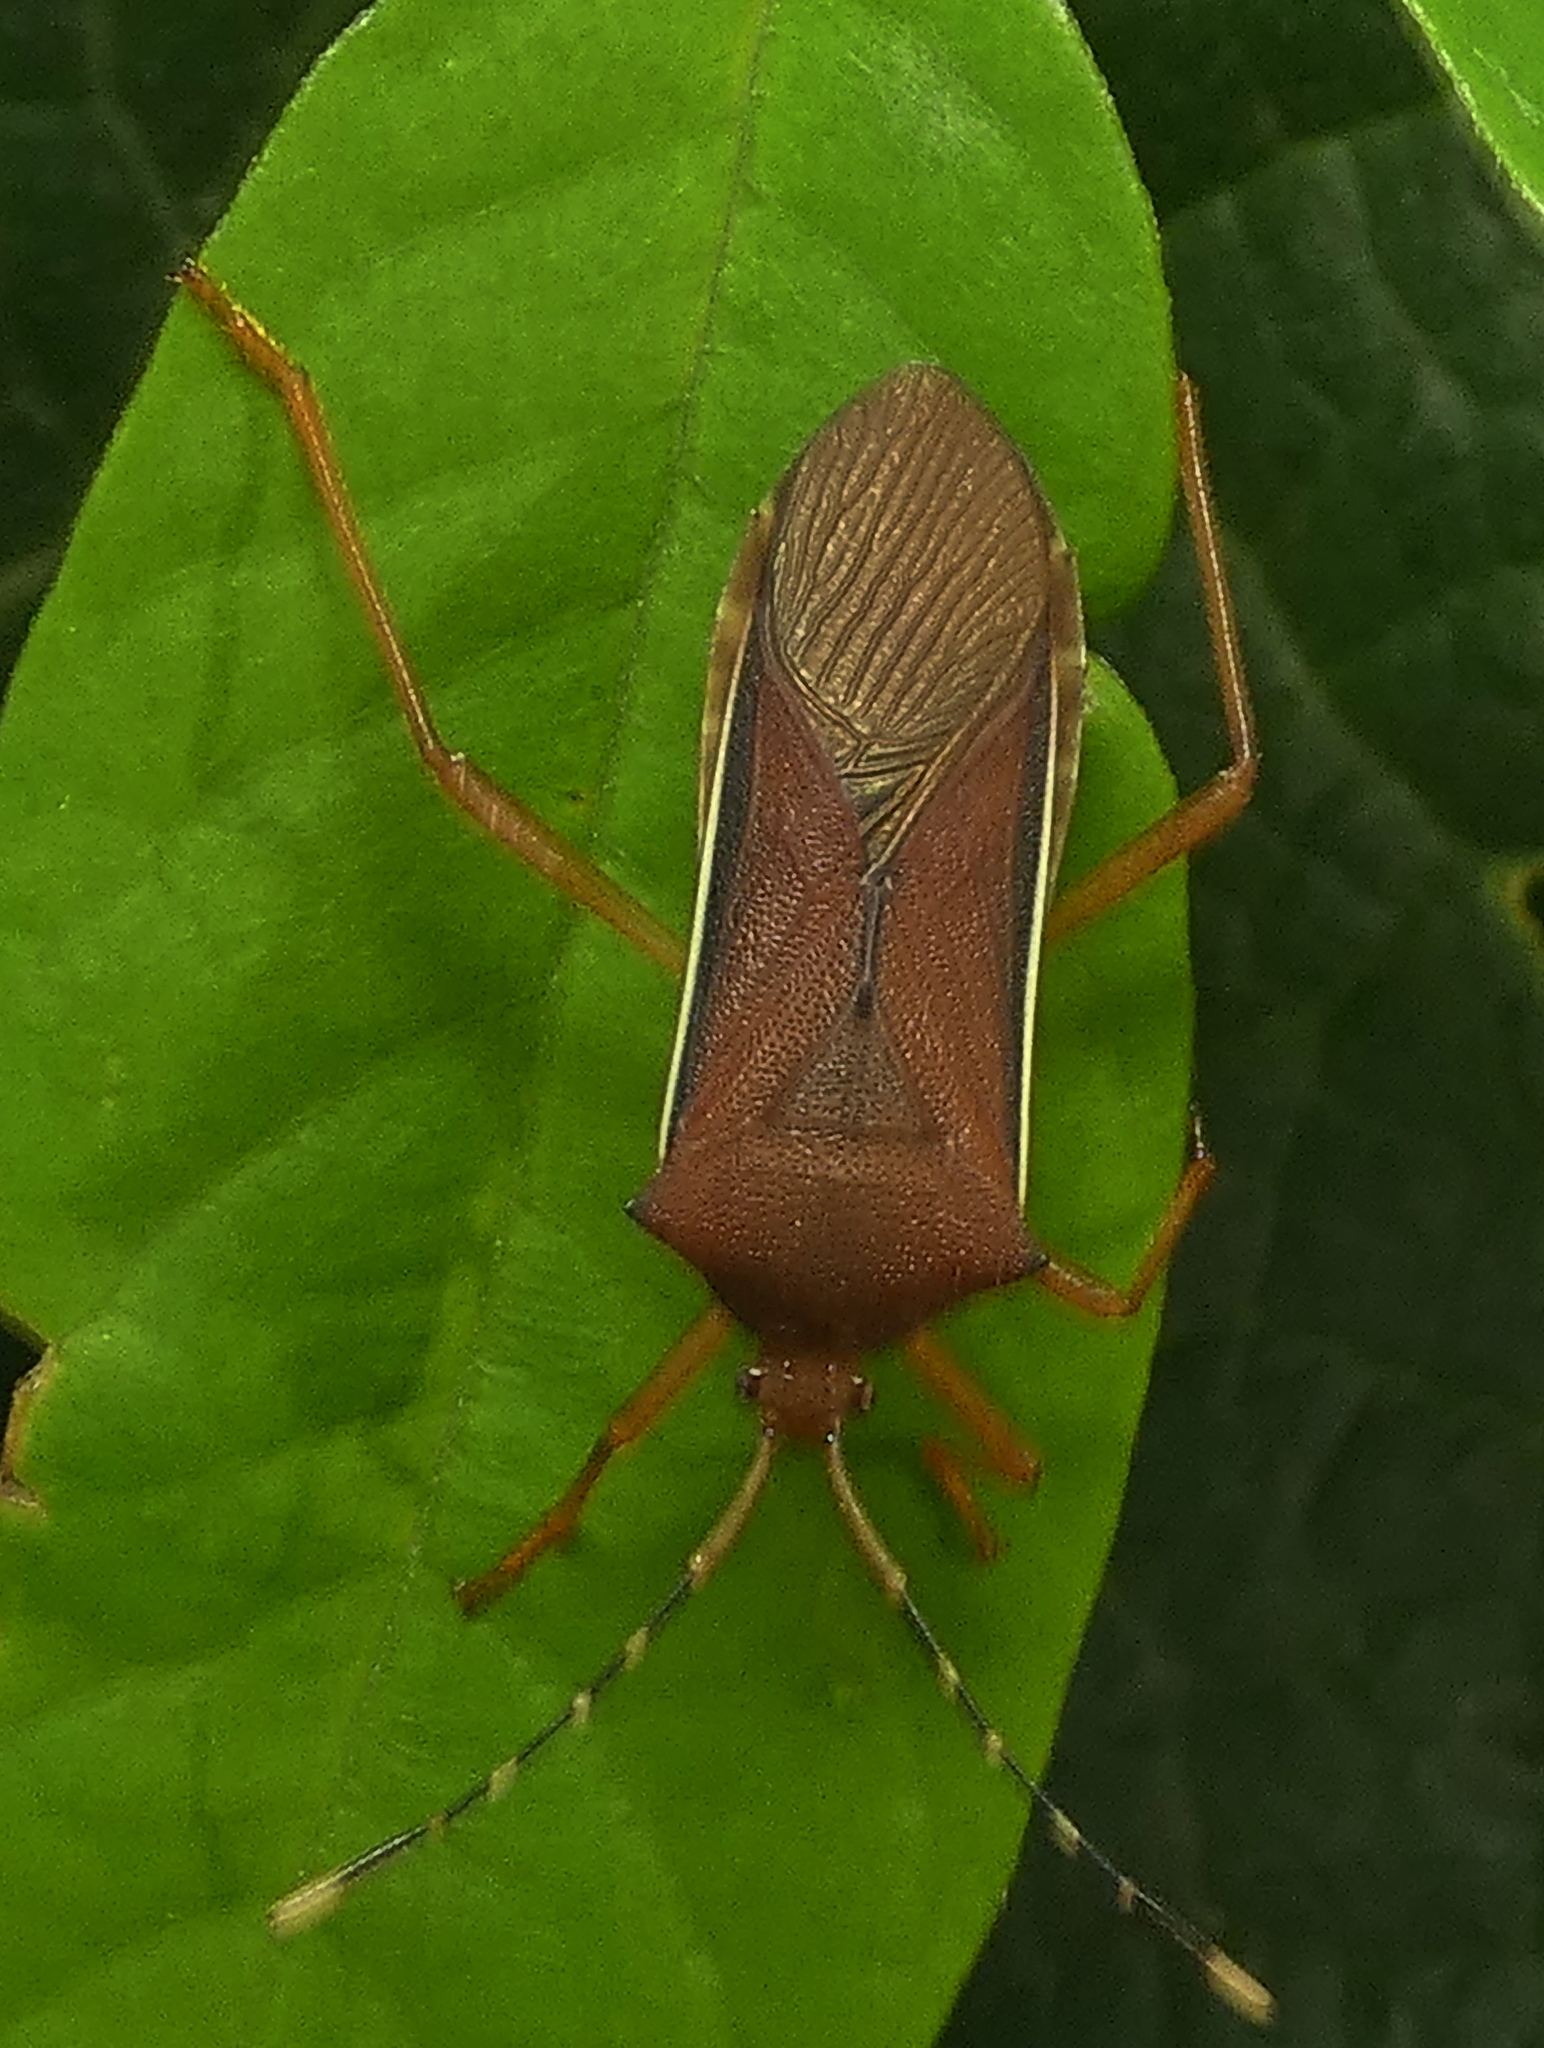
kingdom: Animalia
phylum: Arthropoda
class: Insecta
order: Hemiptera
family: Coreidae
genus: Anasa
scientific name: Anasa varicornis
